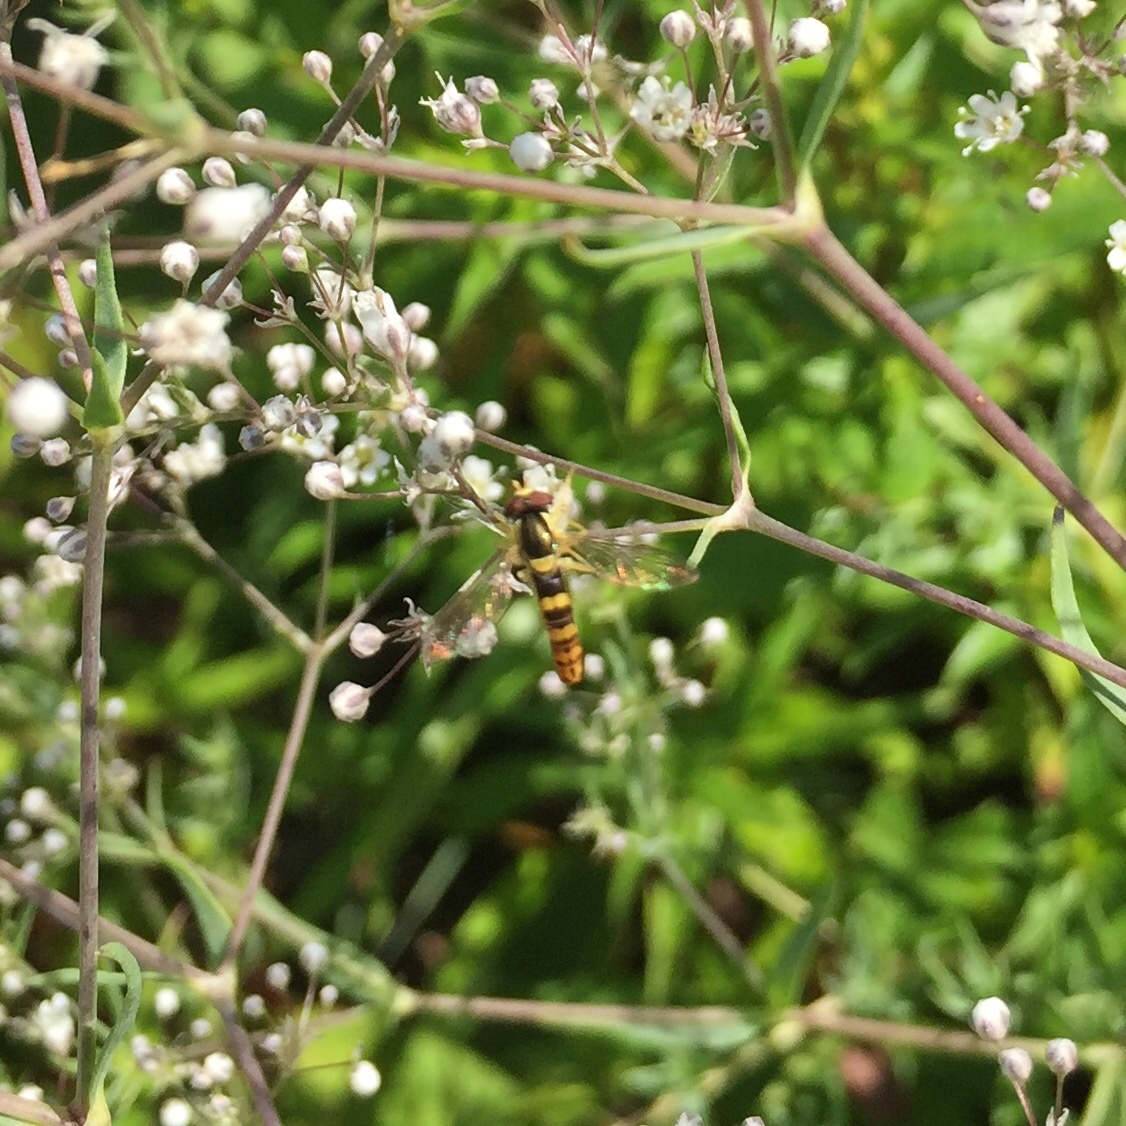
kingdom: Animalia
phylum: Arthropoda
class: Insecta
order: Diptera
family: Syrphidae
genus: Sphaerophoria
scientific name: Sphaerophoria scripta
